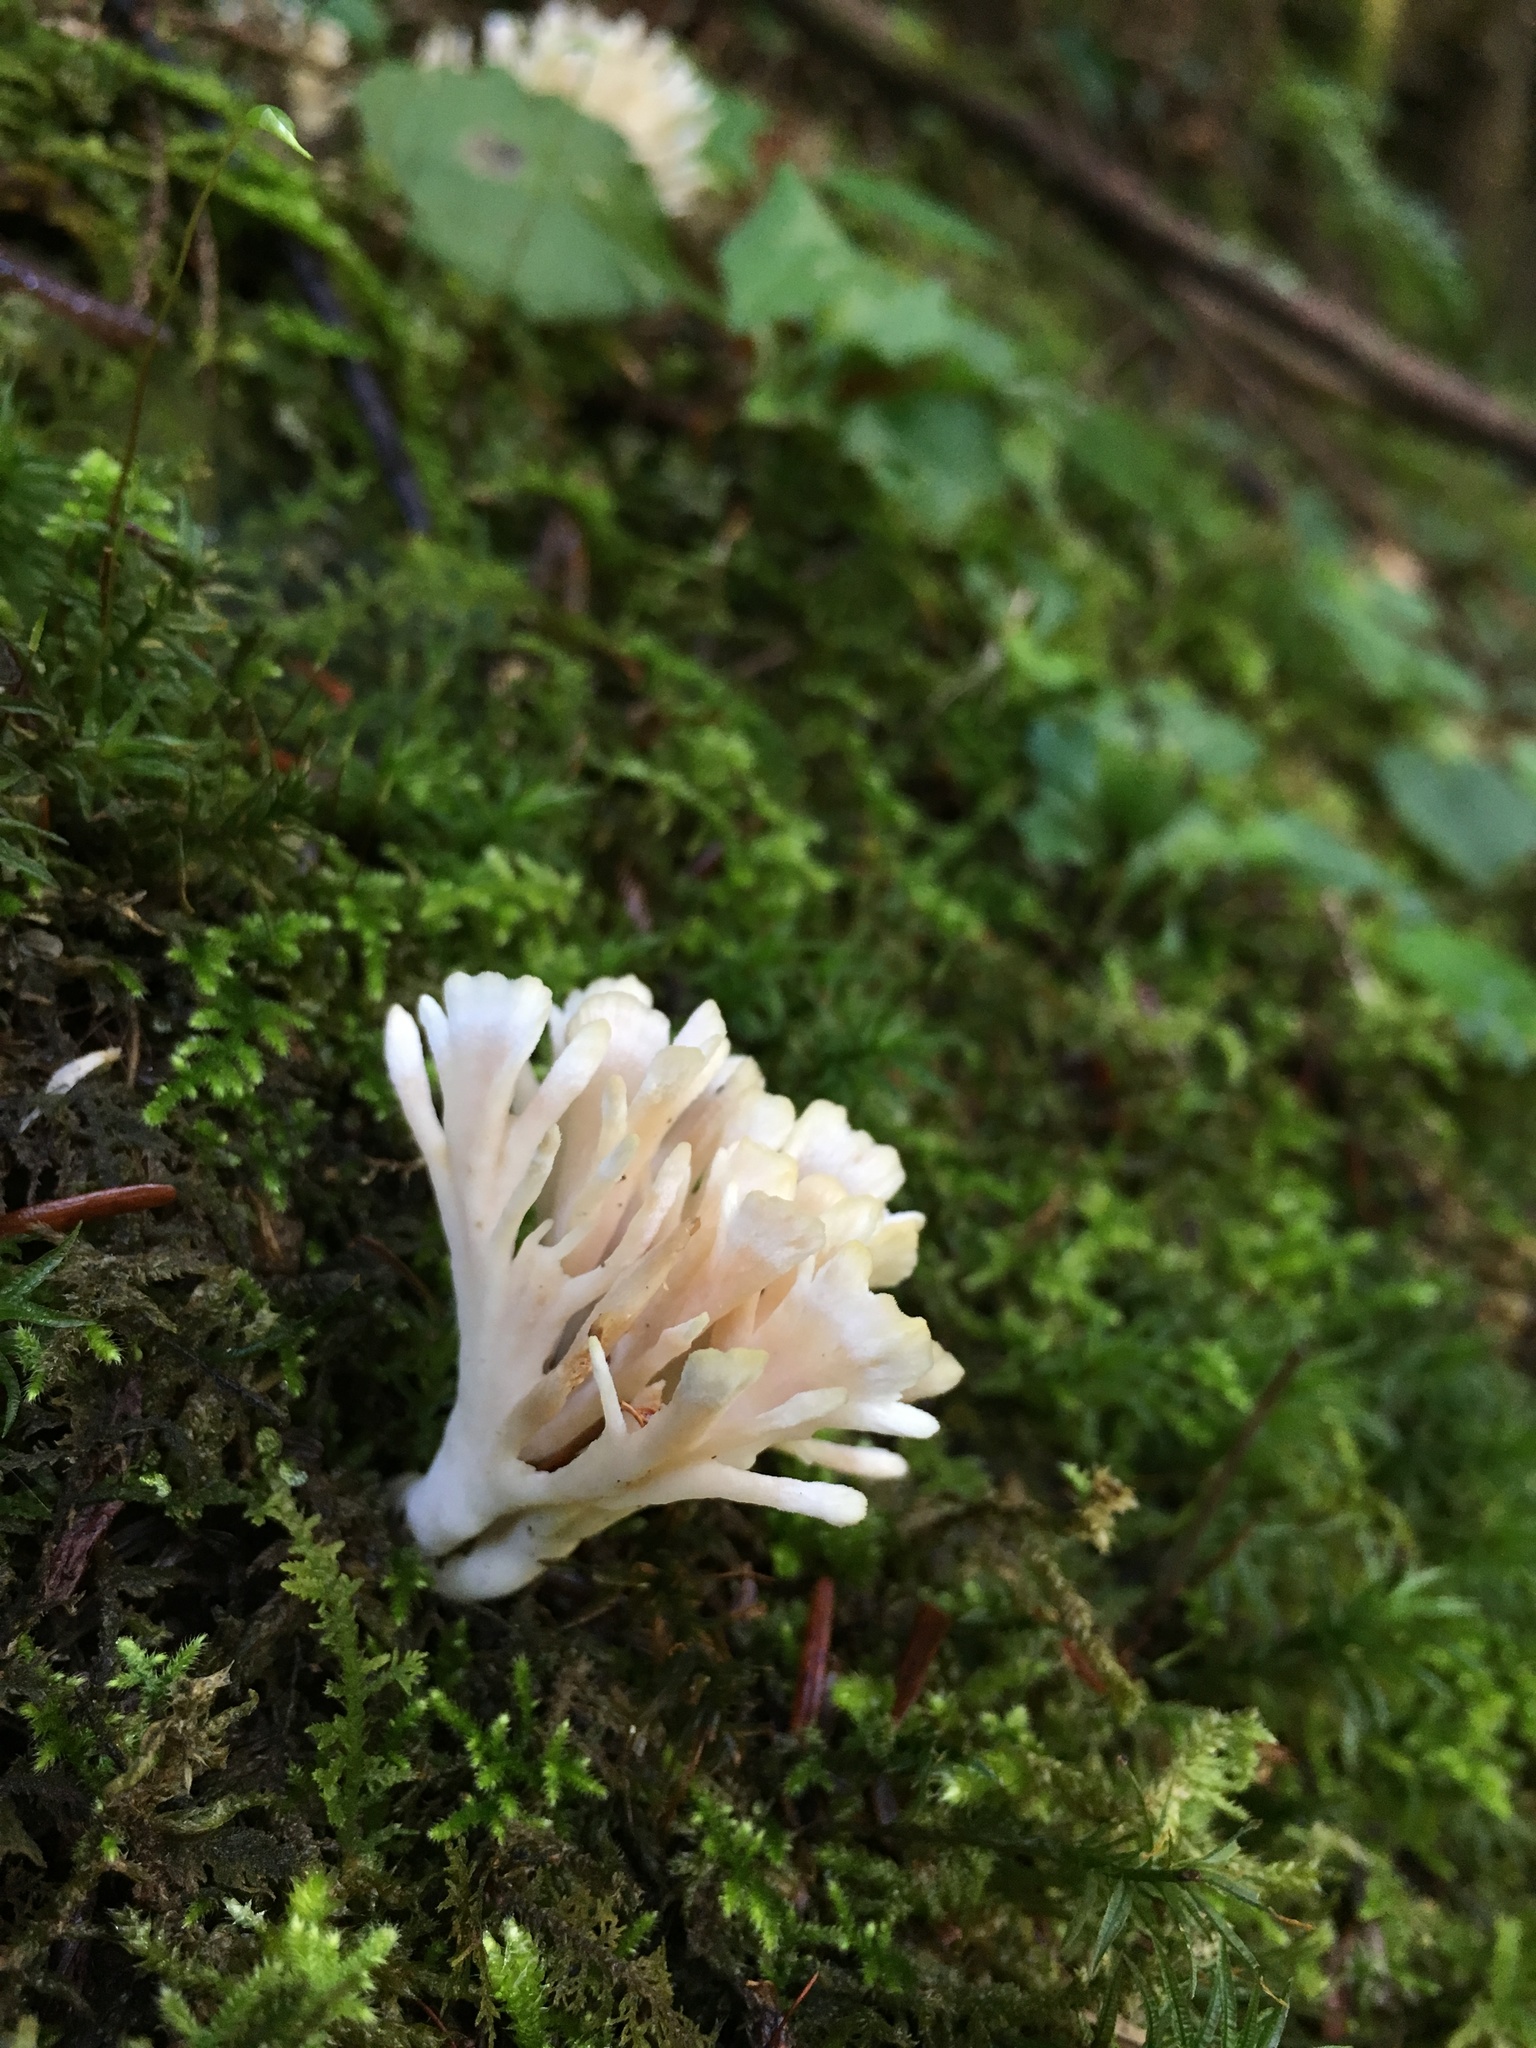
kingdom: Fungi
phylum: Basidiomycota
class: Agaricomycetes
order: Sebacinales
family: Sebacinaceae
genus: Sebacina
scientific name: Sebacina schweinitzii
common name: Jellied false coral fungus
